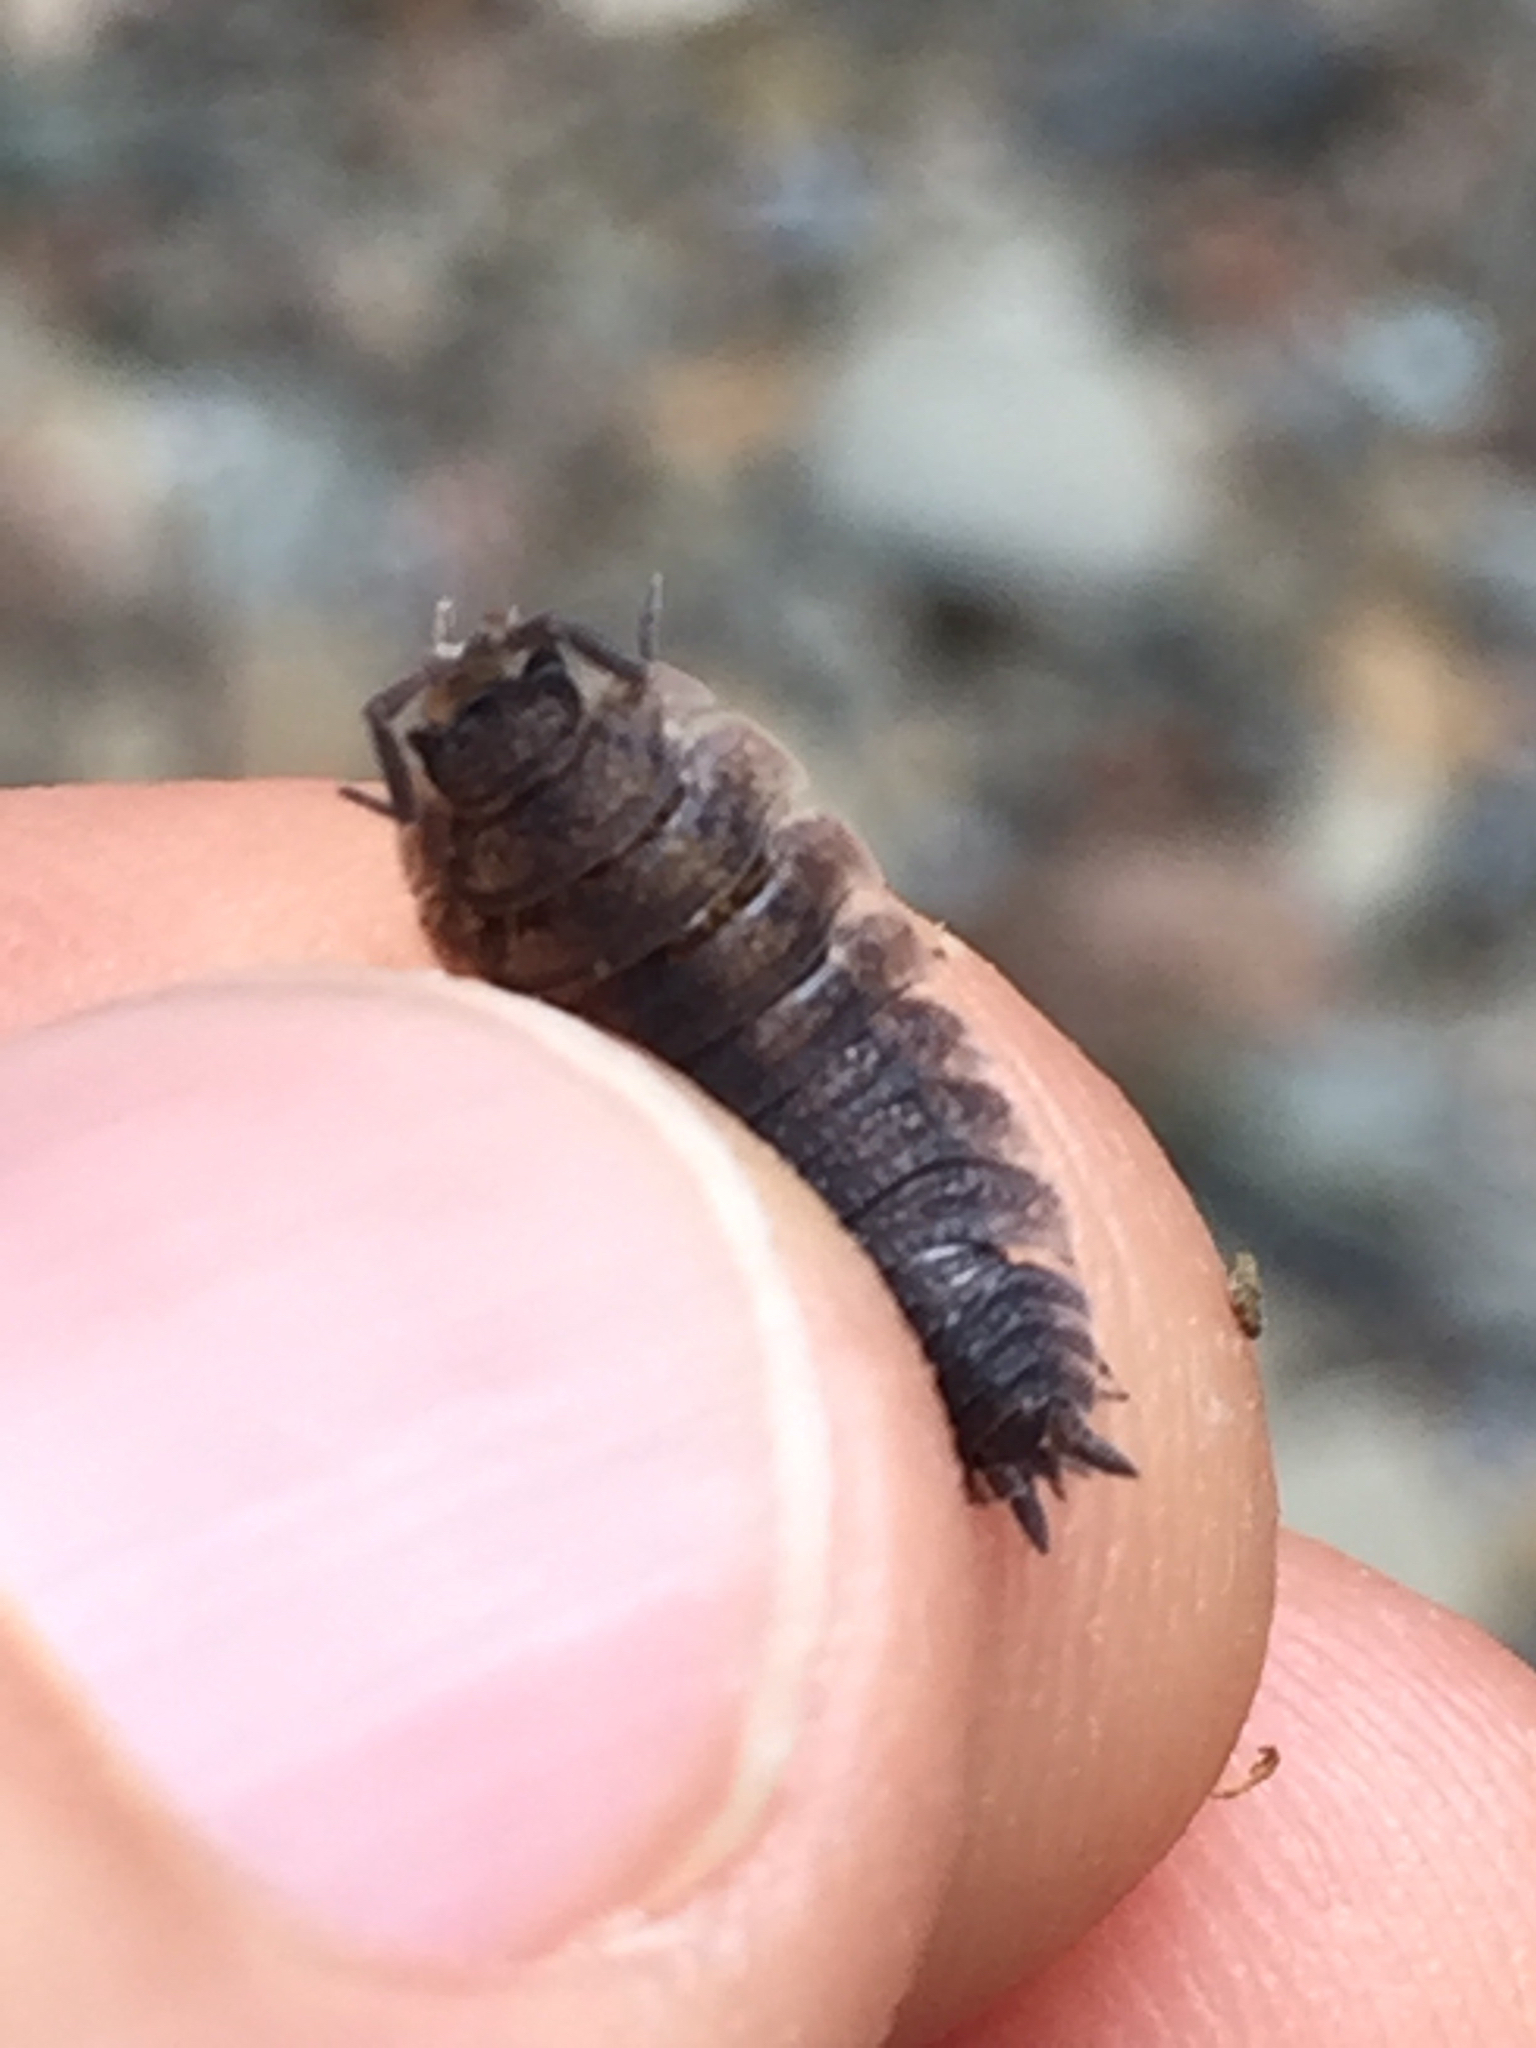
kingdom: Animalia
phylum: Arthropoda
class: Malacostraca
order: Isopoda
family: Porcellionidae
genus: Porcellio
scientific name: Porcellio scaber
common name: Common rough woodlouse
